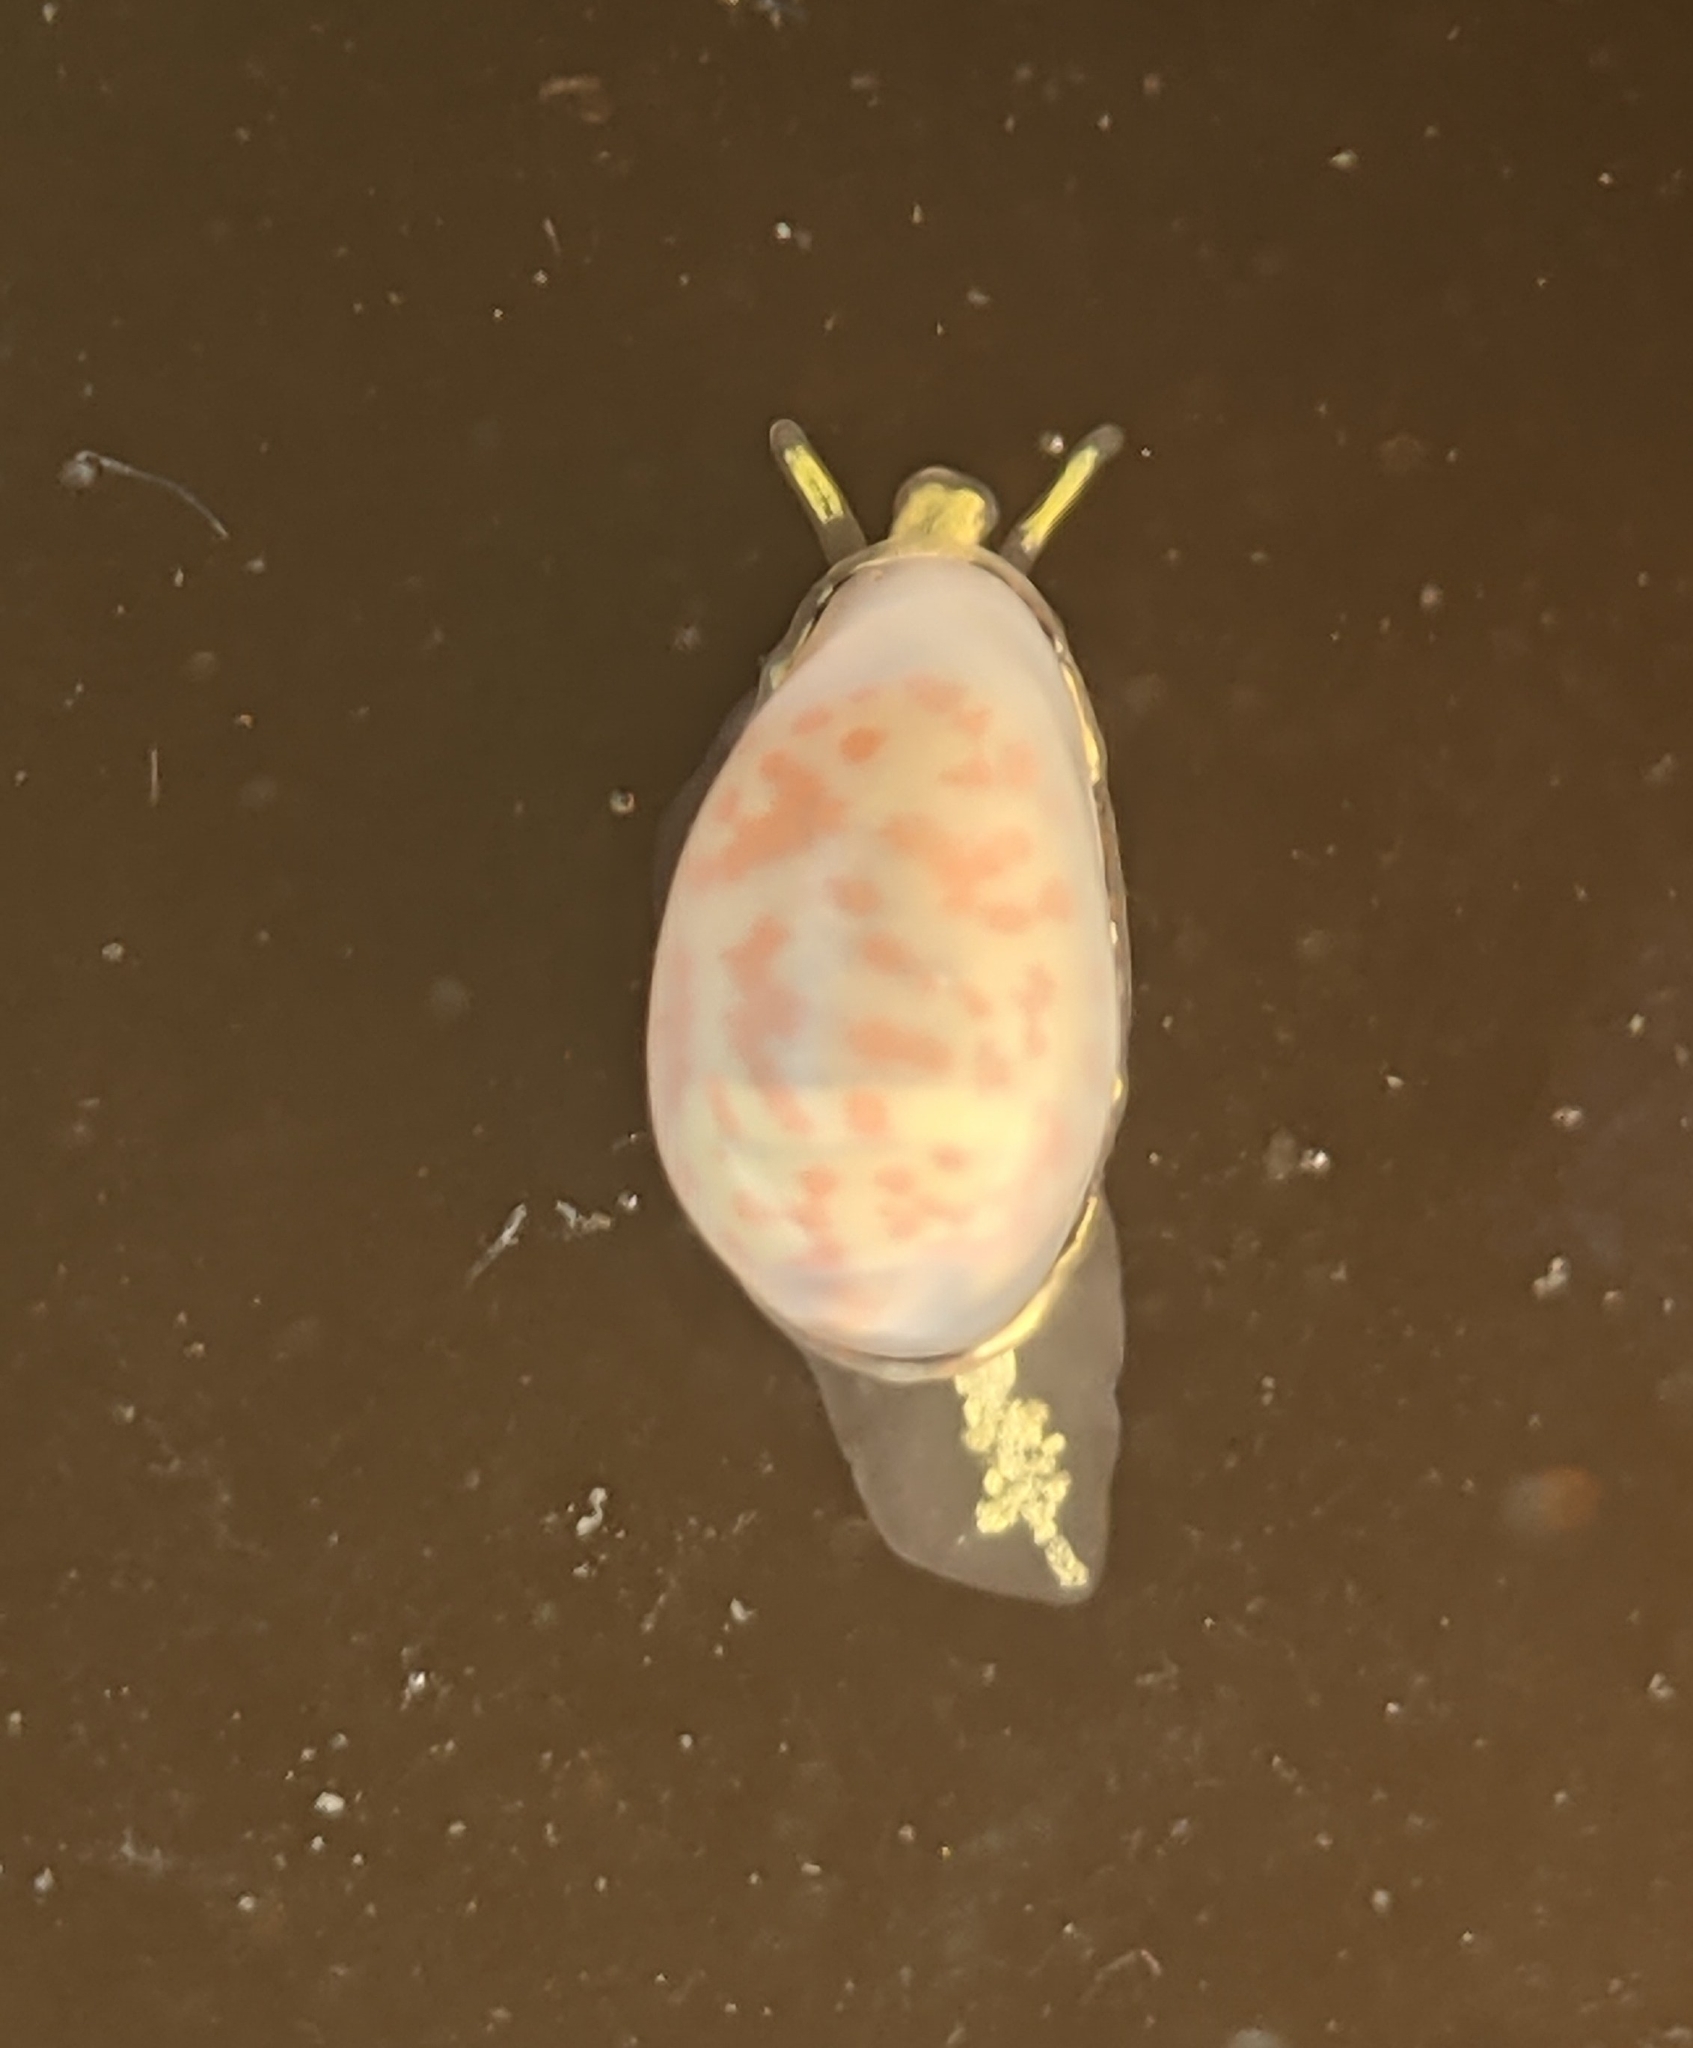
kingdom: Animalia
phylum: Mollusca
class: Gastropoda
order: Neogastropoda
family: Granulinidae
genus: Granulina
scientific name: Granulina margaritula
